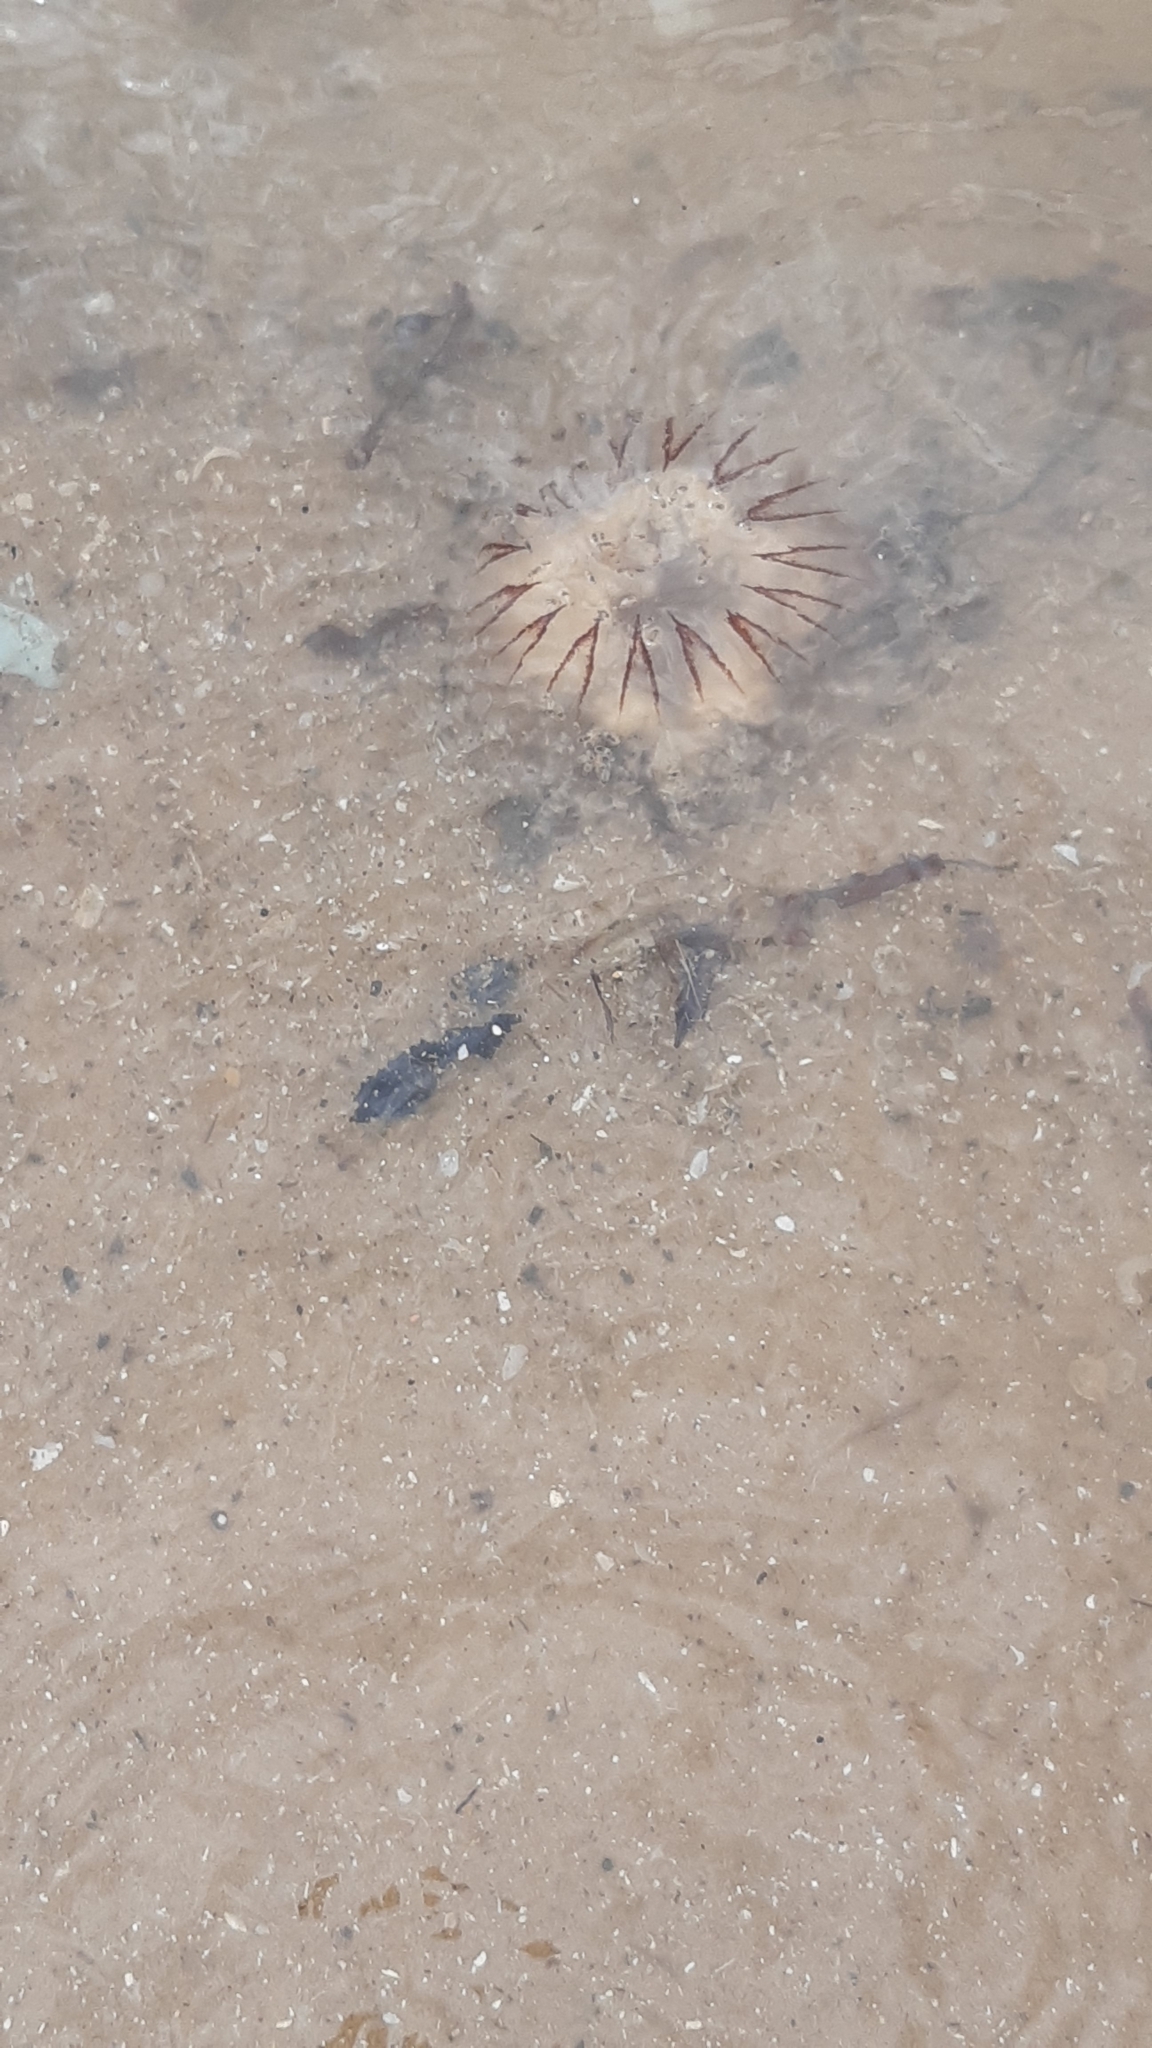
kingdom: Animalia
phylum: Cnidaria
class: Scyphozoa
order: Semaeostomeae
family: Pelagiidae
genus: Chrysaora
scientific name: Chrysaora hysoscella
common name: Compass jellyfish
